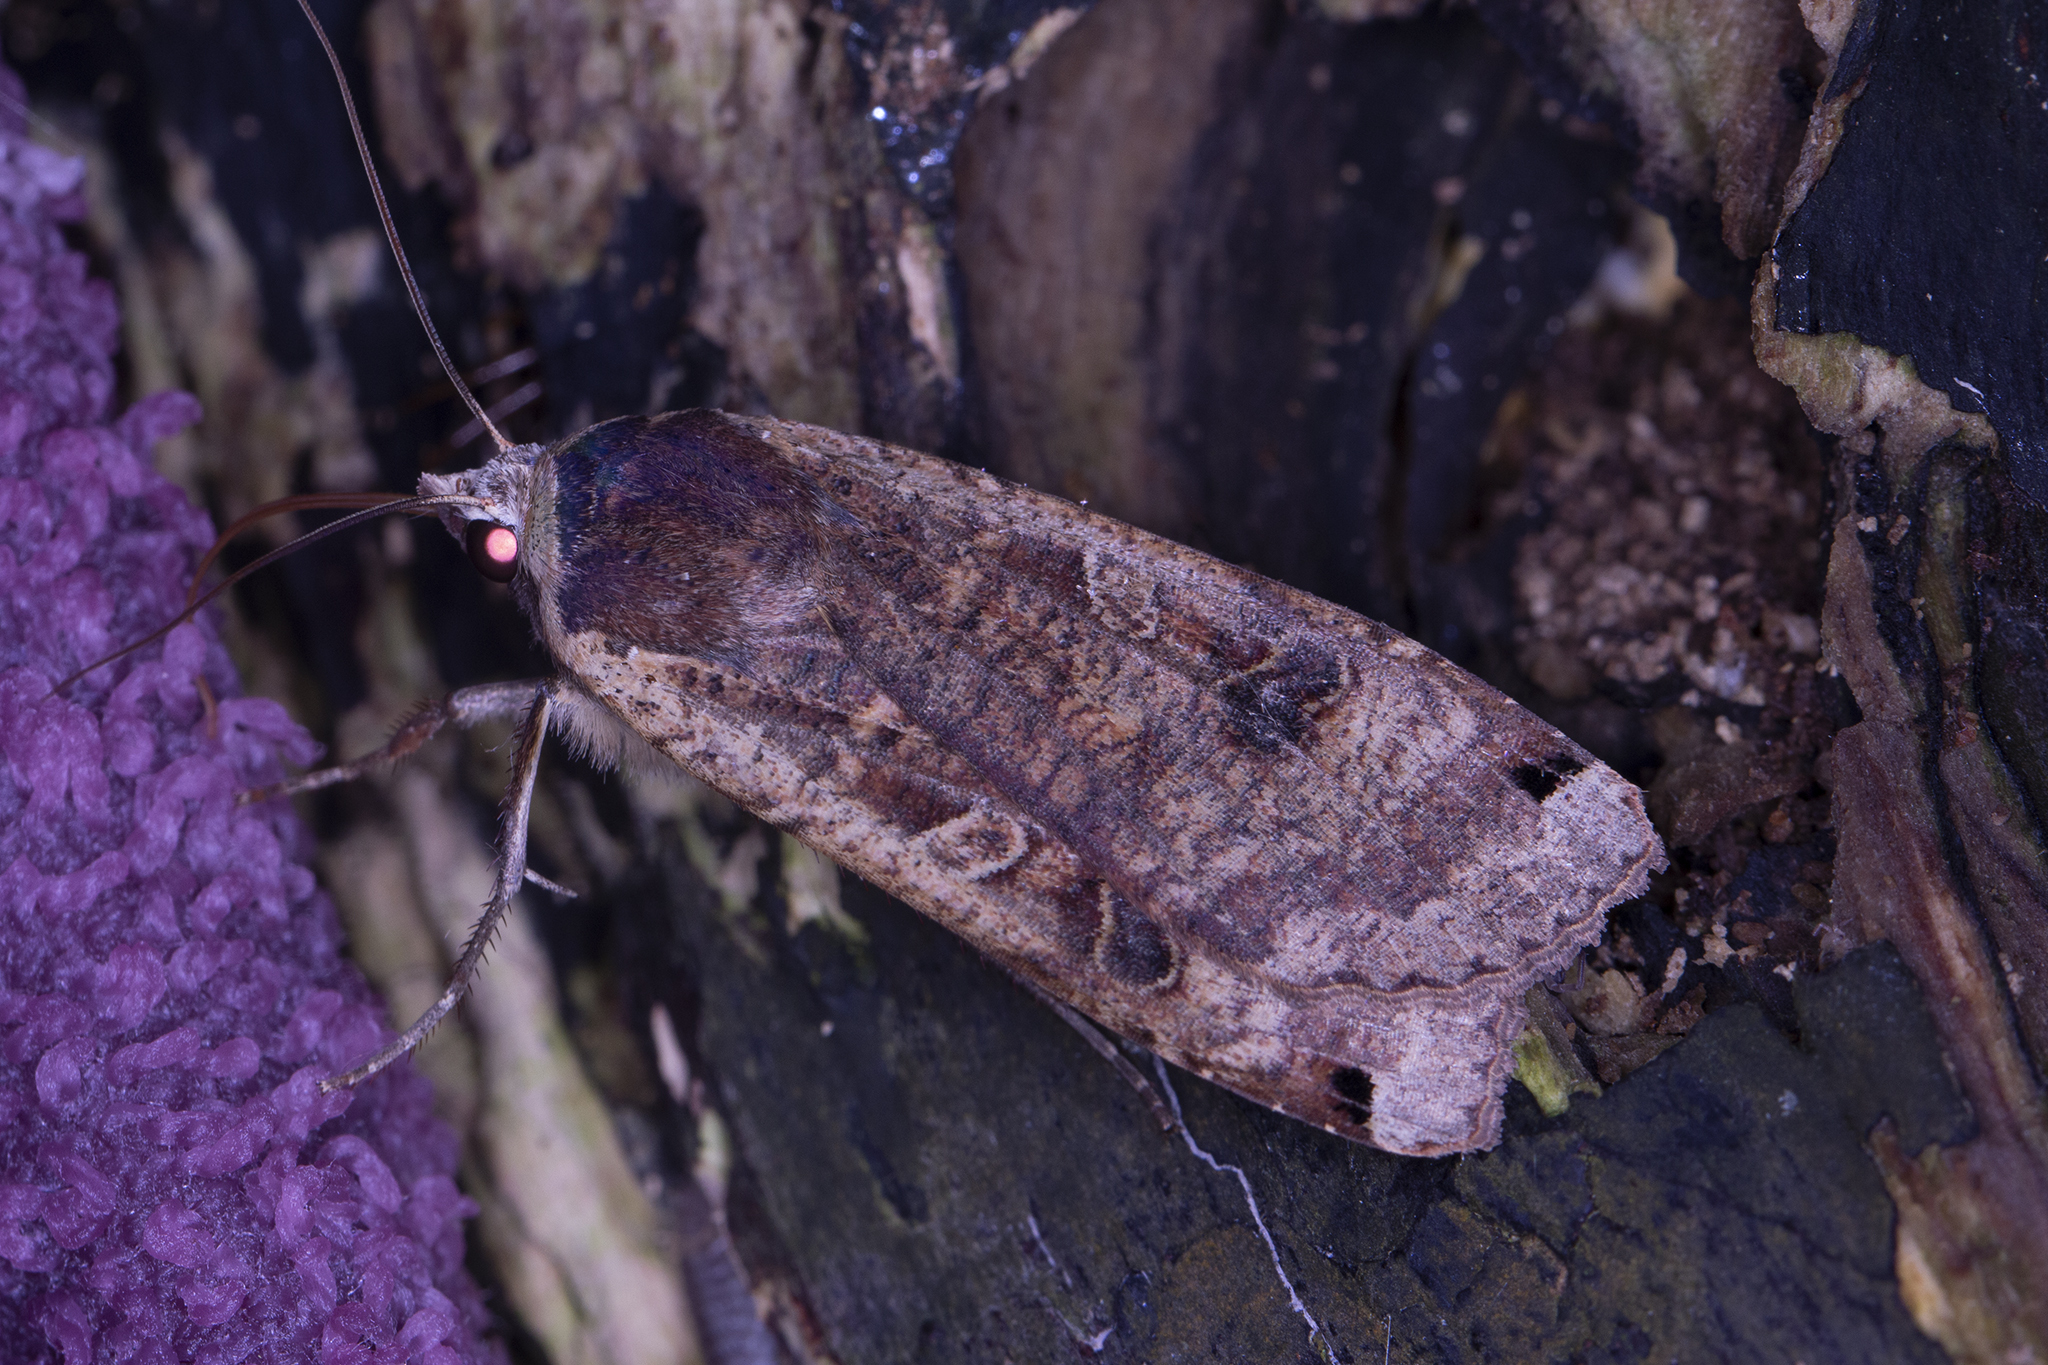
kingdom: Animalia
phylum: Arthropoda
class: Insecta
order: Lepidoptera
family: Noctuidae
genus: Noctua
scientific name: Noctua pronuba
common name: Large yellow underwing
